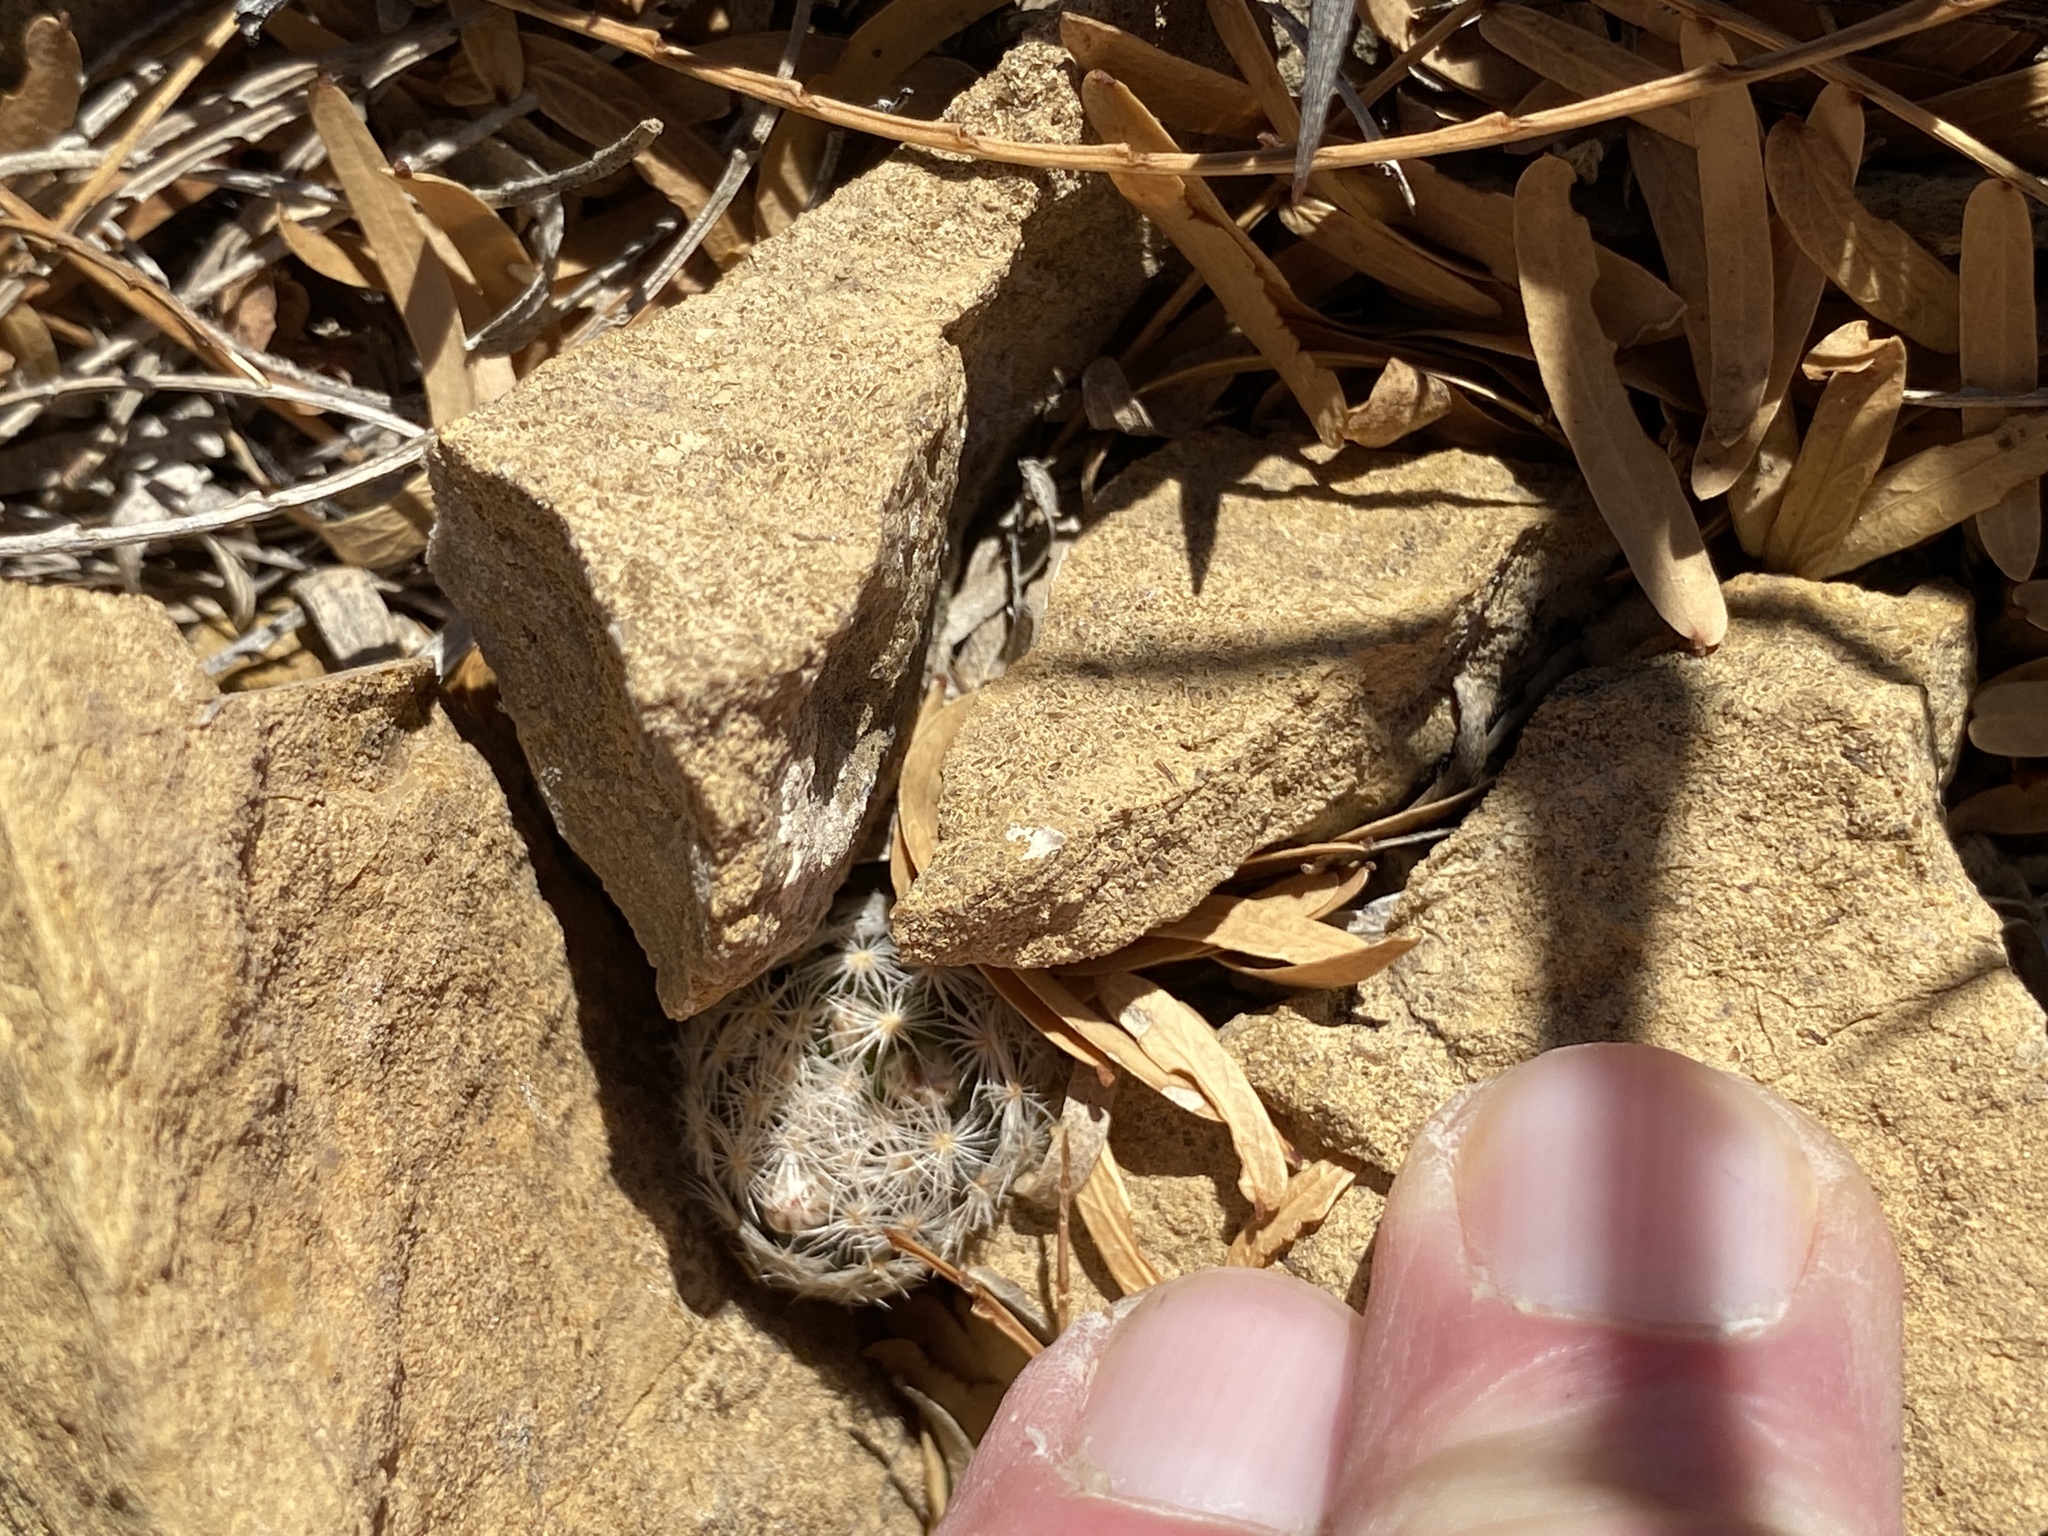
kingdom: Plantae
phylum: Tracheophyta
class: Magnoliopsida
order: Caryophyllales
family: Cactaceae
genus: Mammillaria
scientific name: Mammillaria lasiacantha
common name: Lace-spine nipple cactus
